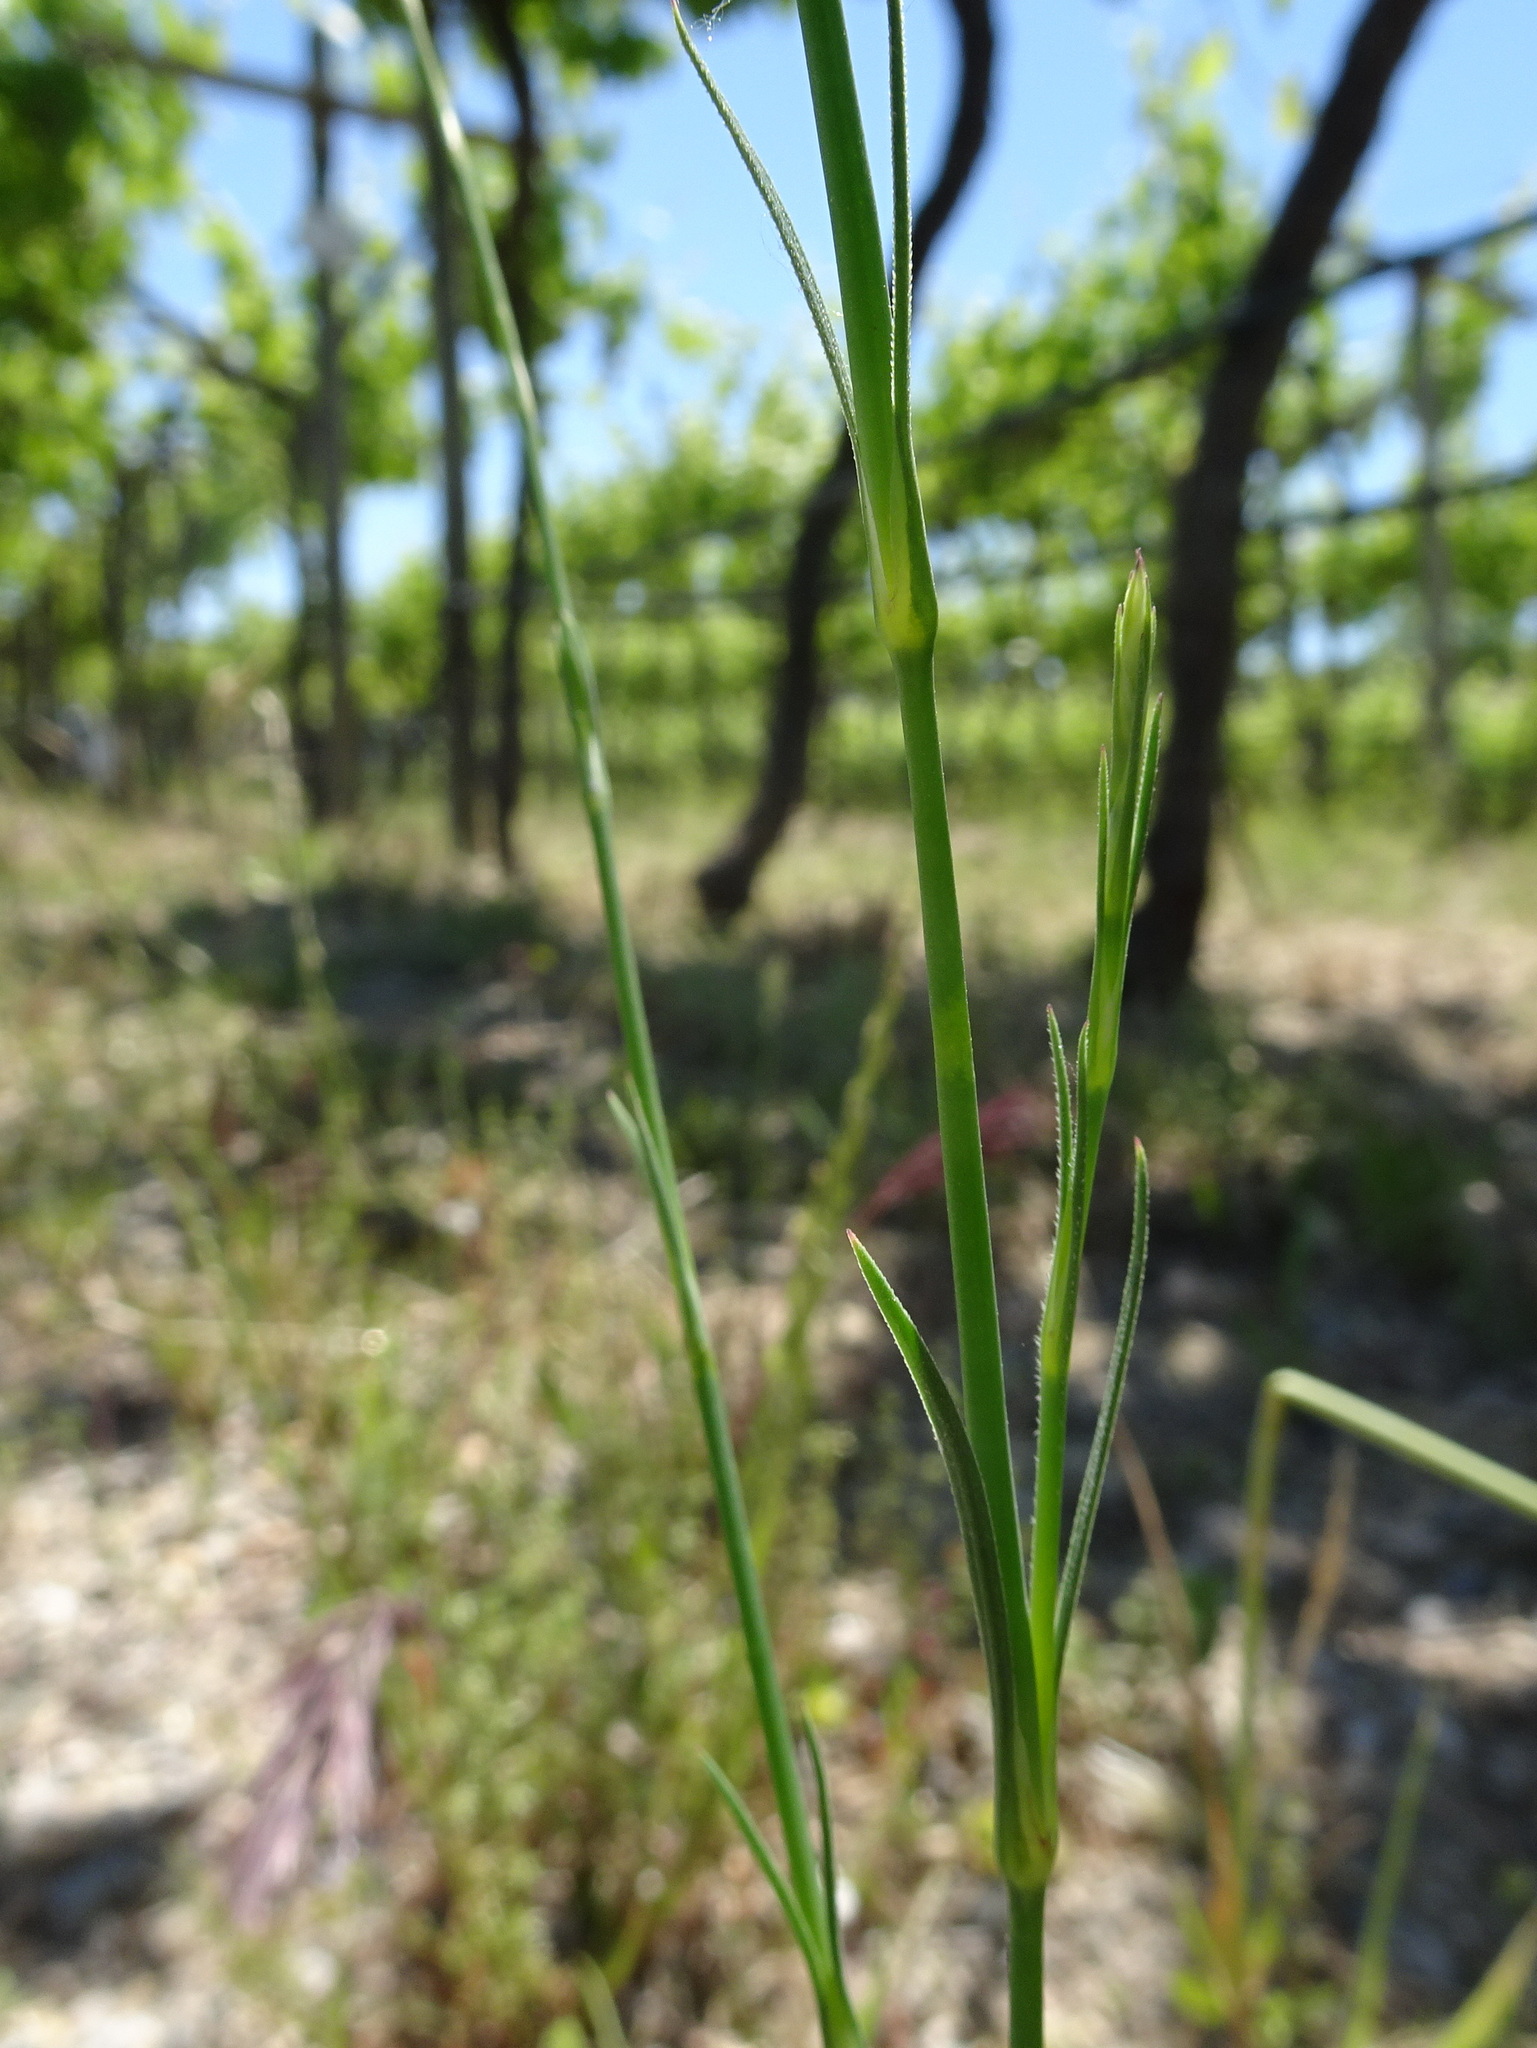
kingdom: Plantae
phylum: Tracheophyta
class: Magnoliopsida
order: Caryophyllales
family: Caryophyllaceae
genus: Petrorhagia
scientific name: Petrorhagia prolifera
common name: Proliferous pink
